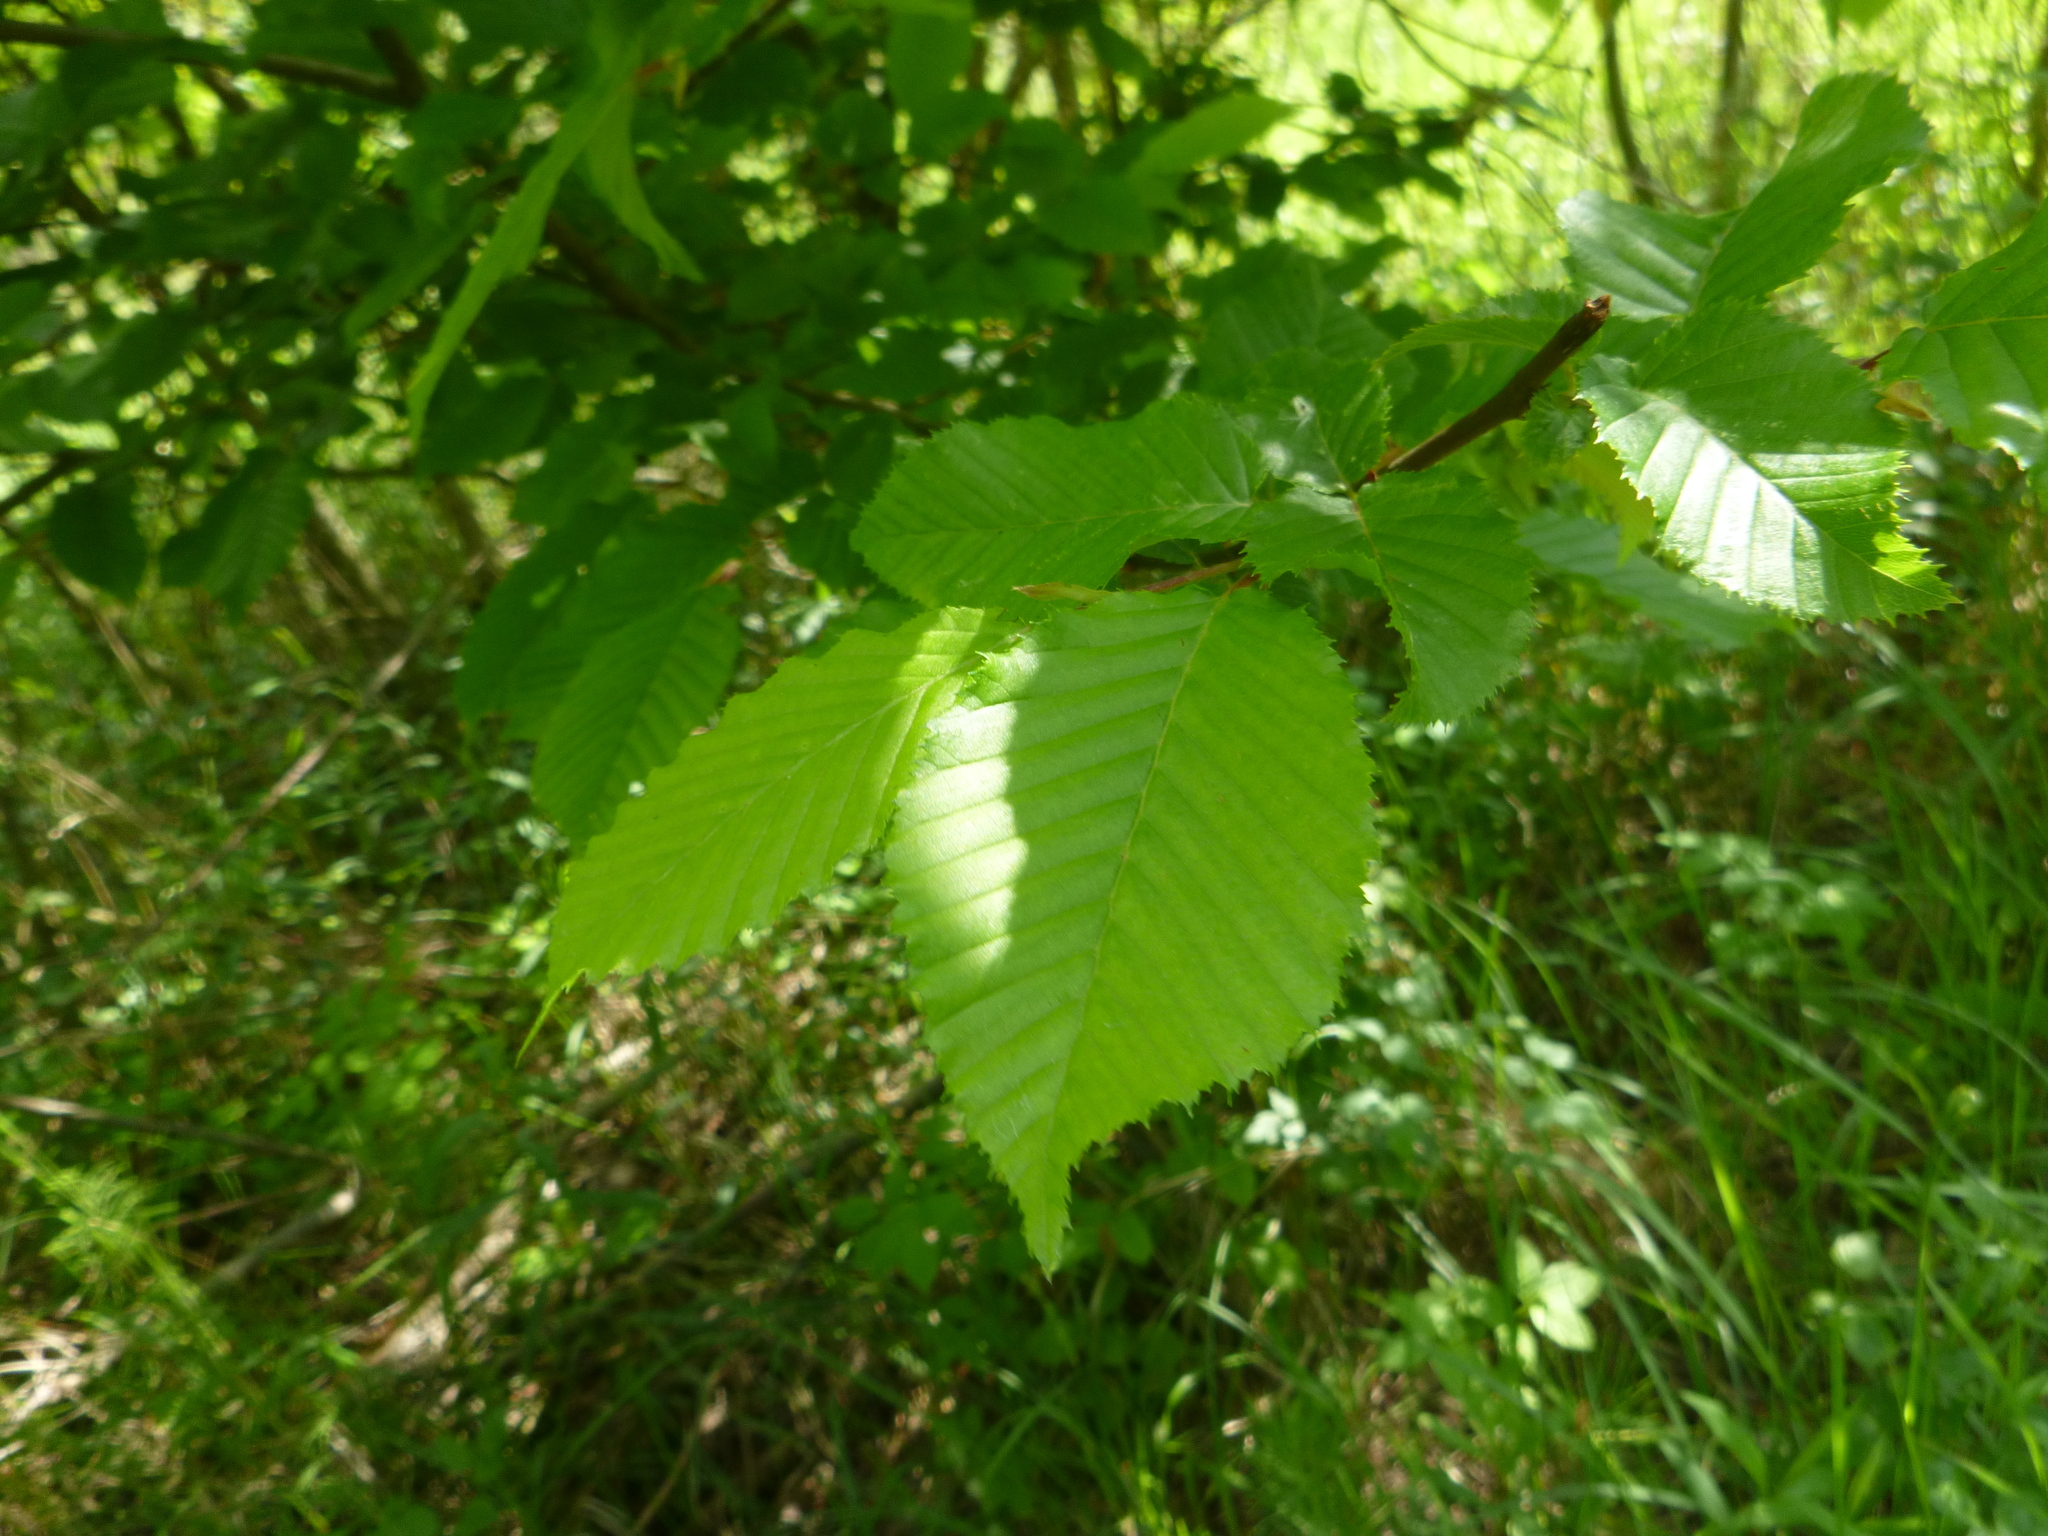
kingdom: Plantae
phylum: Tracheophyta
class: Magnoliopsida
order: Fagales
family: Betulaceae
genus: Carpinus
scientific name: Carpinus betulus
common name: Hornbeam
